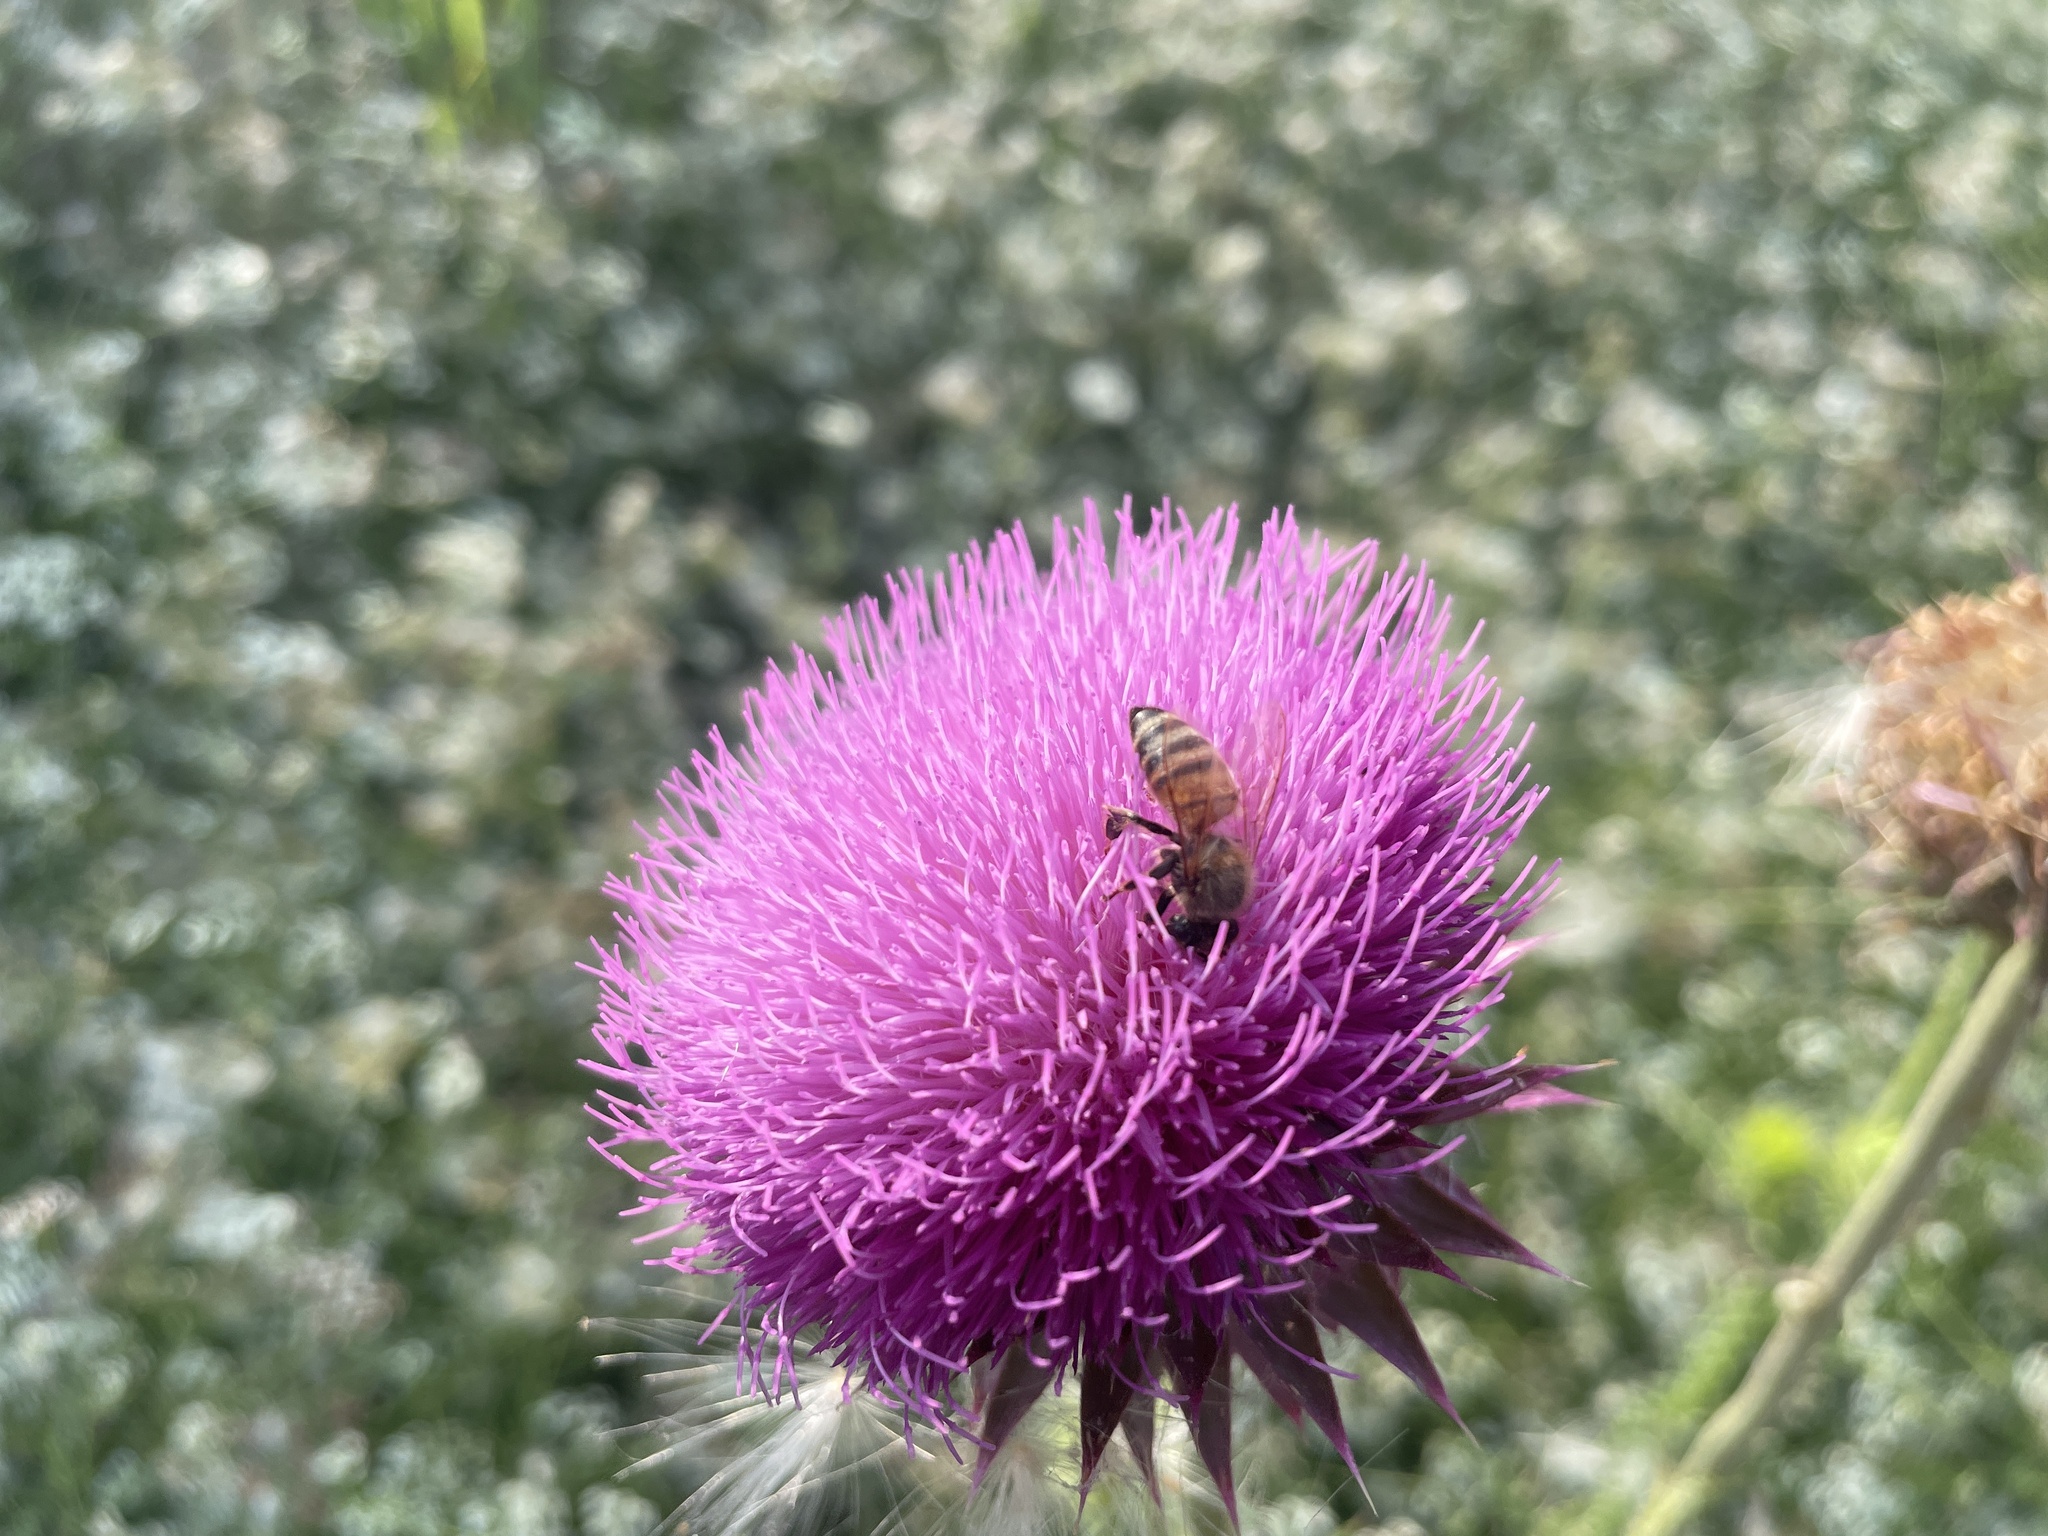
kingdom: Animalia
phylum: Arthropoda
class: Insecta
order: Hymenoptera
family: Apidae
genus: Apis
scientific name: Apis mellifera
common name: Honey bee
